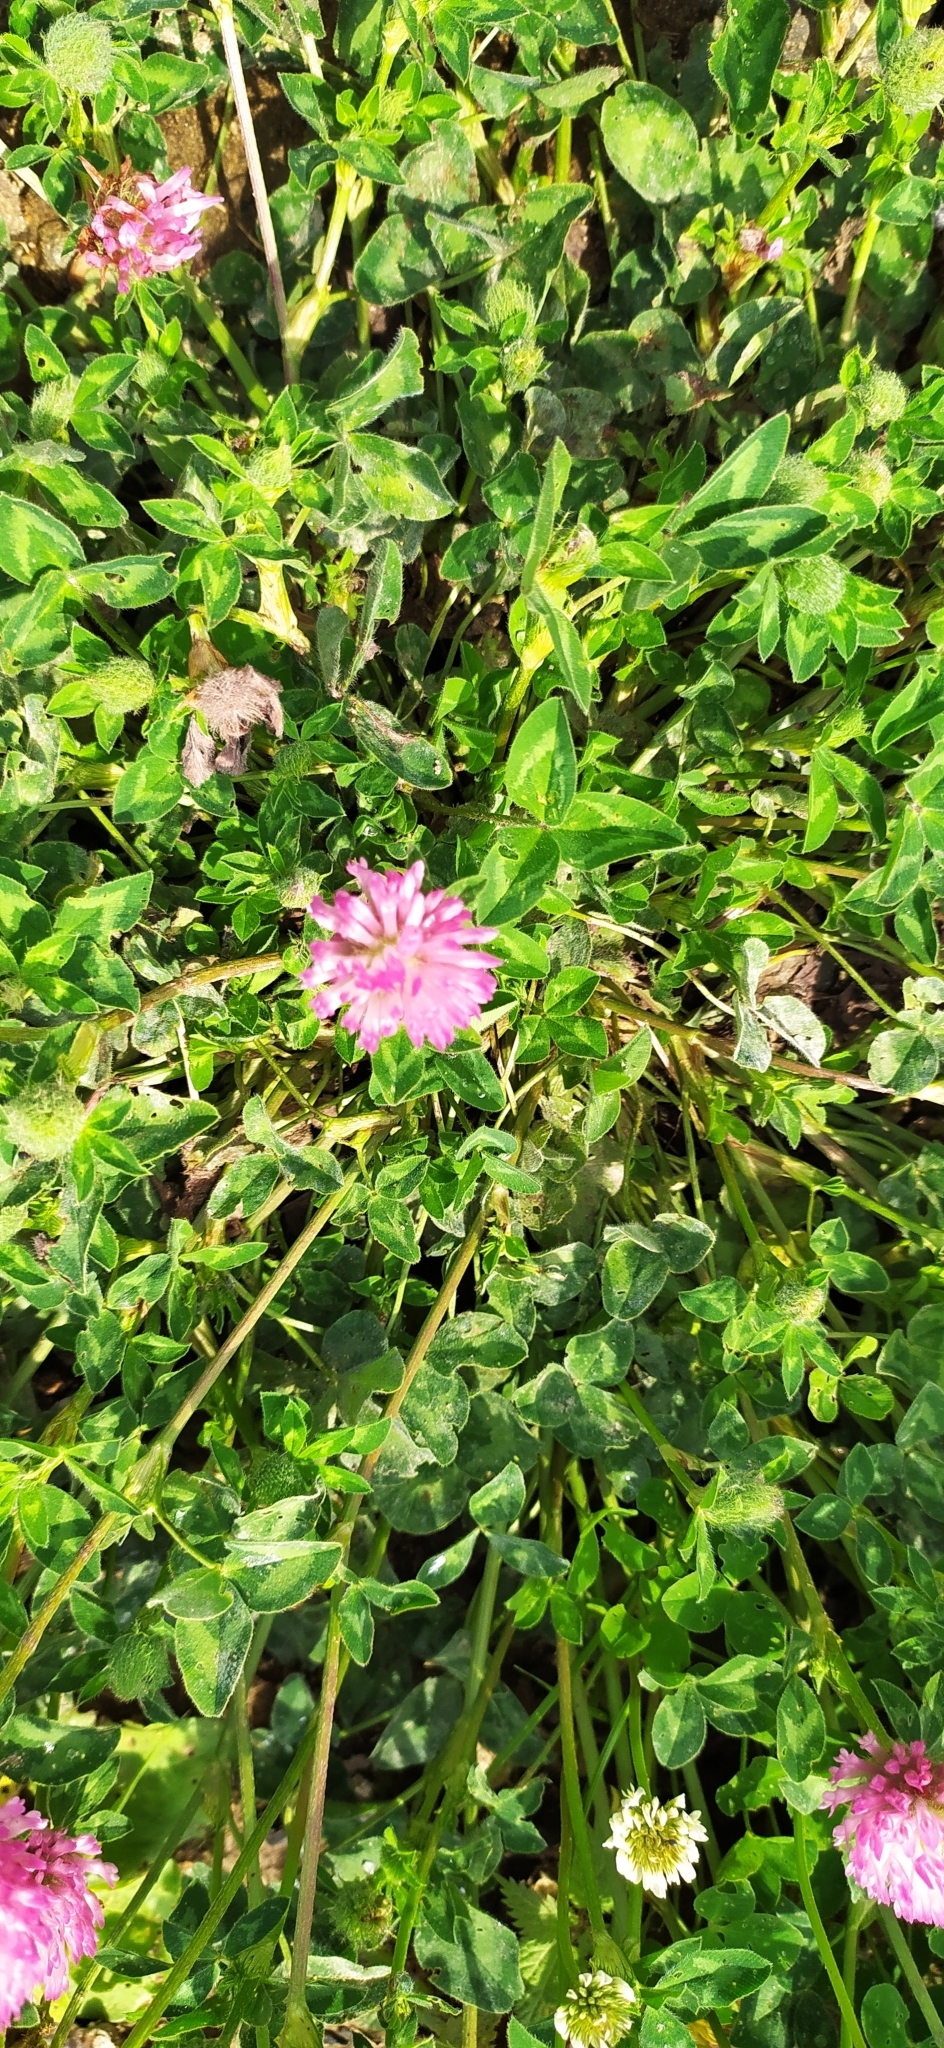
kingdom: Plantae
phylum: Tracheophyta
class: Magnoliopsida
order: Fabales
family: Fabaceae
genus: Trifolium
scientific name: Trifolium pratense
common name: Red clover
